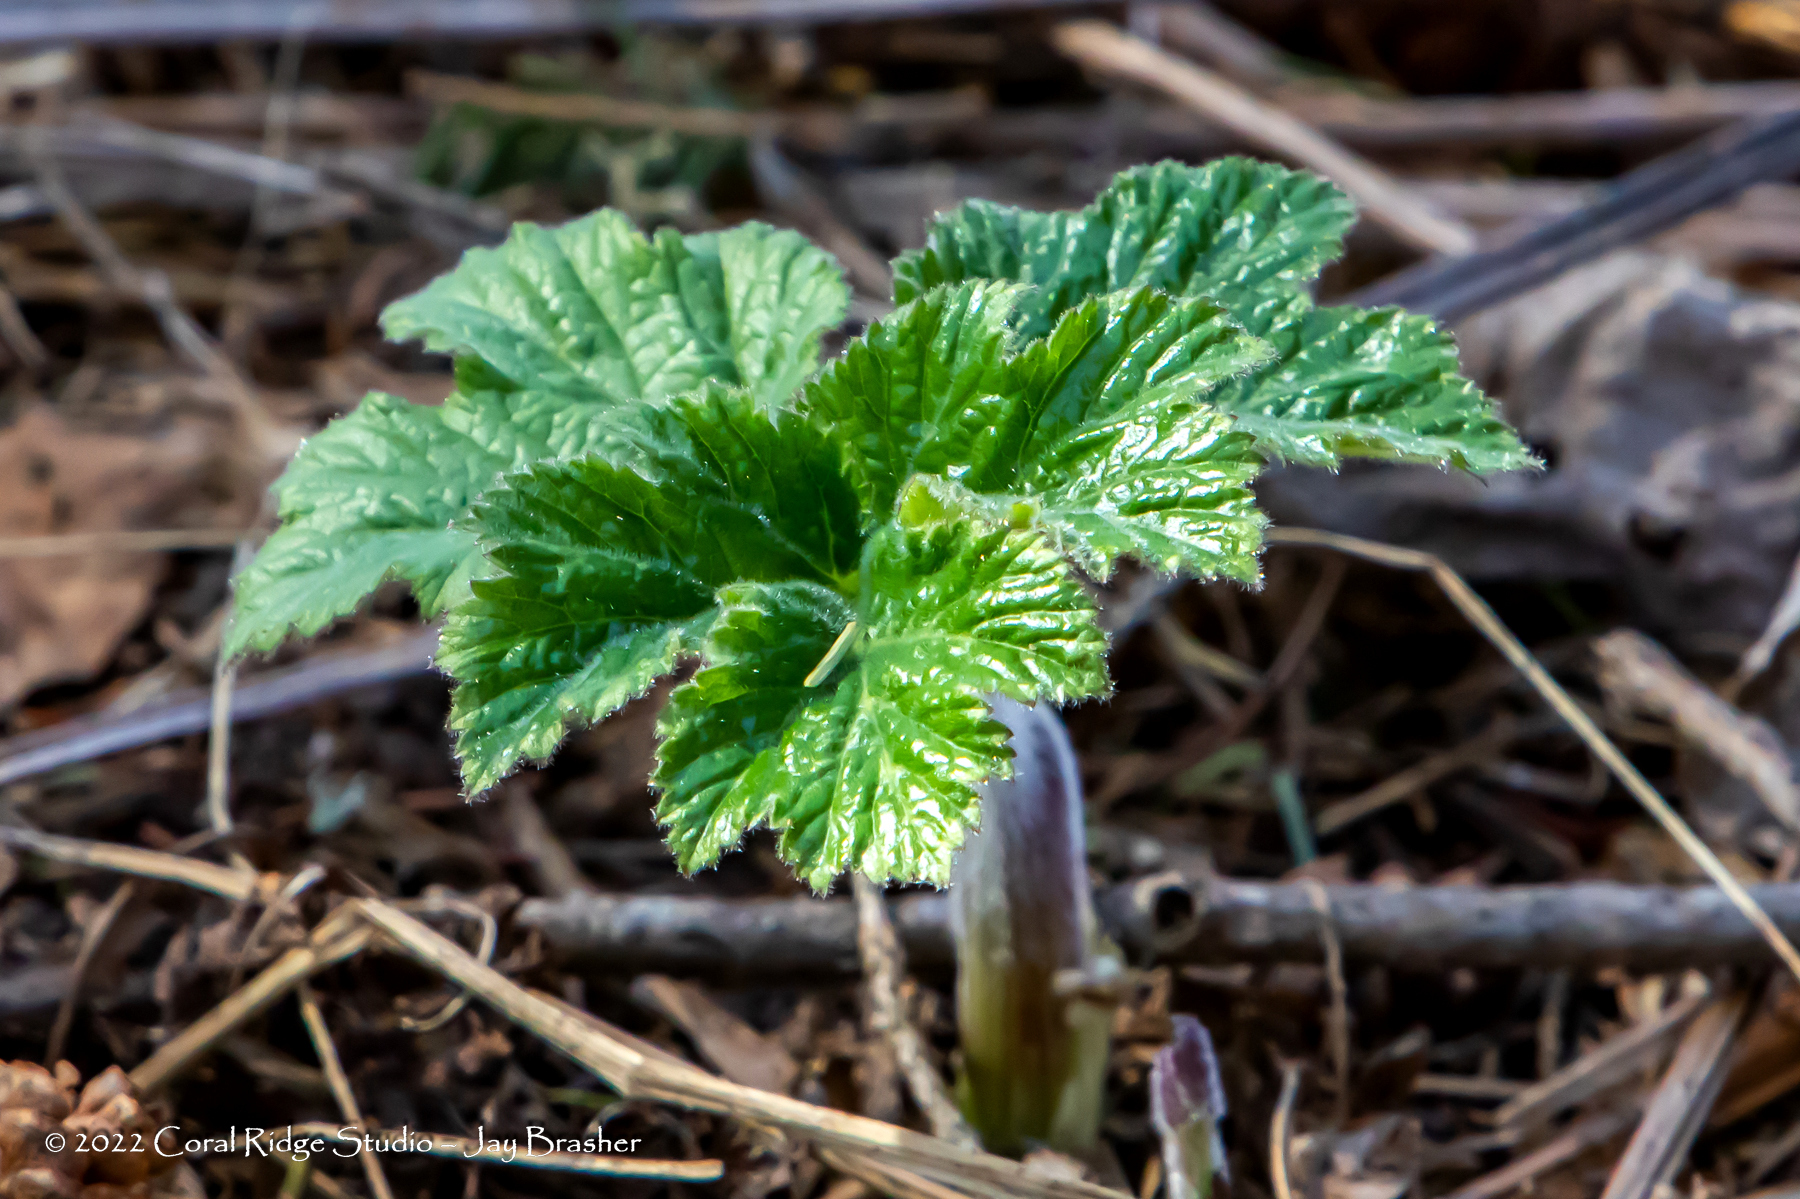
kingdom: Plantae
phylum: Tracheophyta
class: Magnoliopsida
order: Rosales
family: Rosaceae
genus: Rubus
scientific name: Rubus parviflorus
